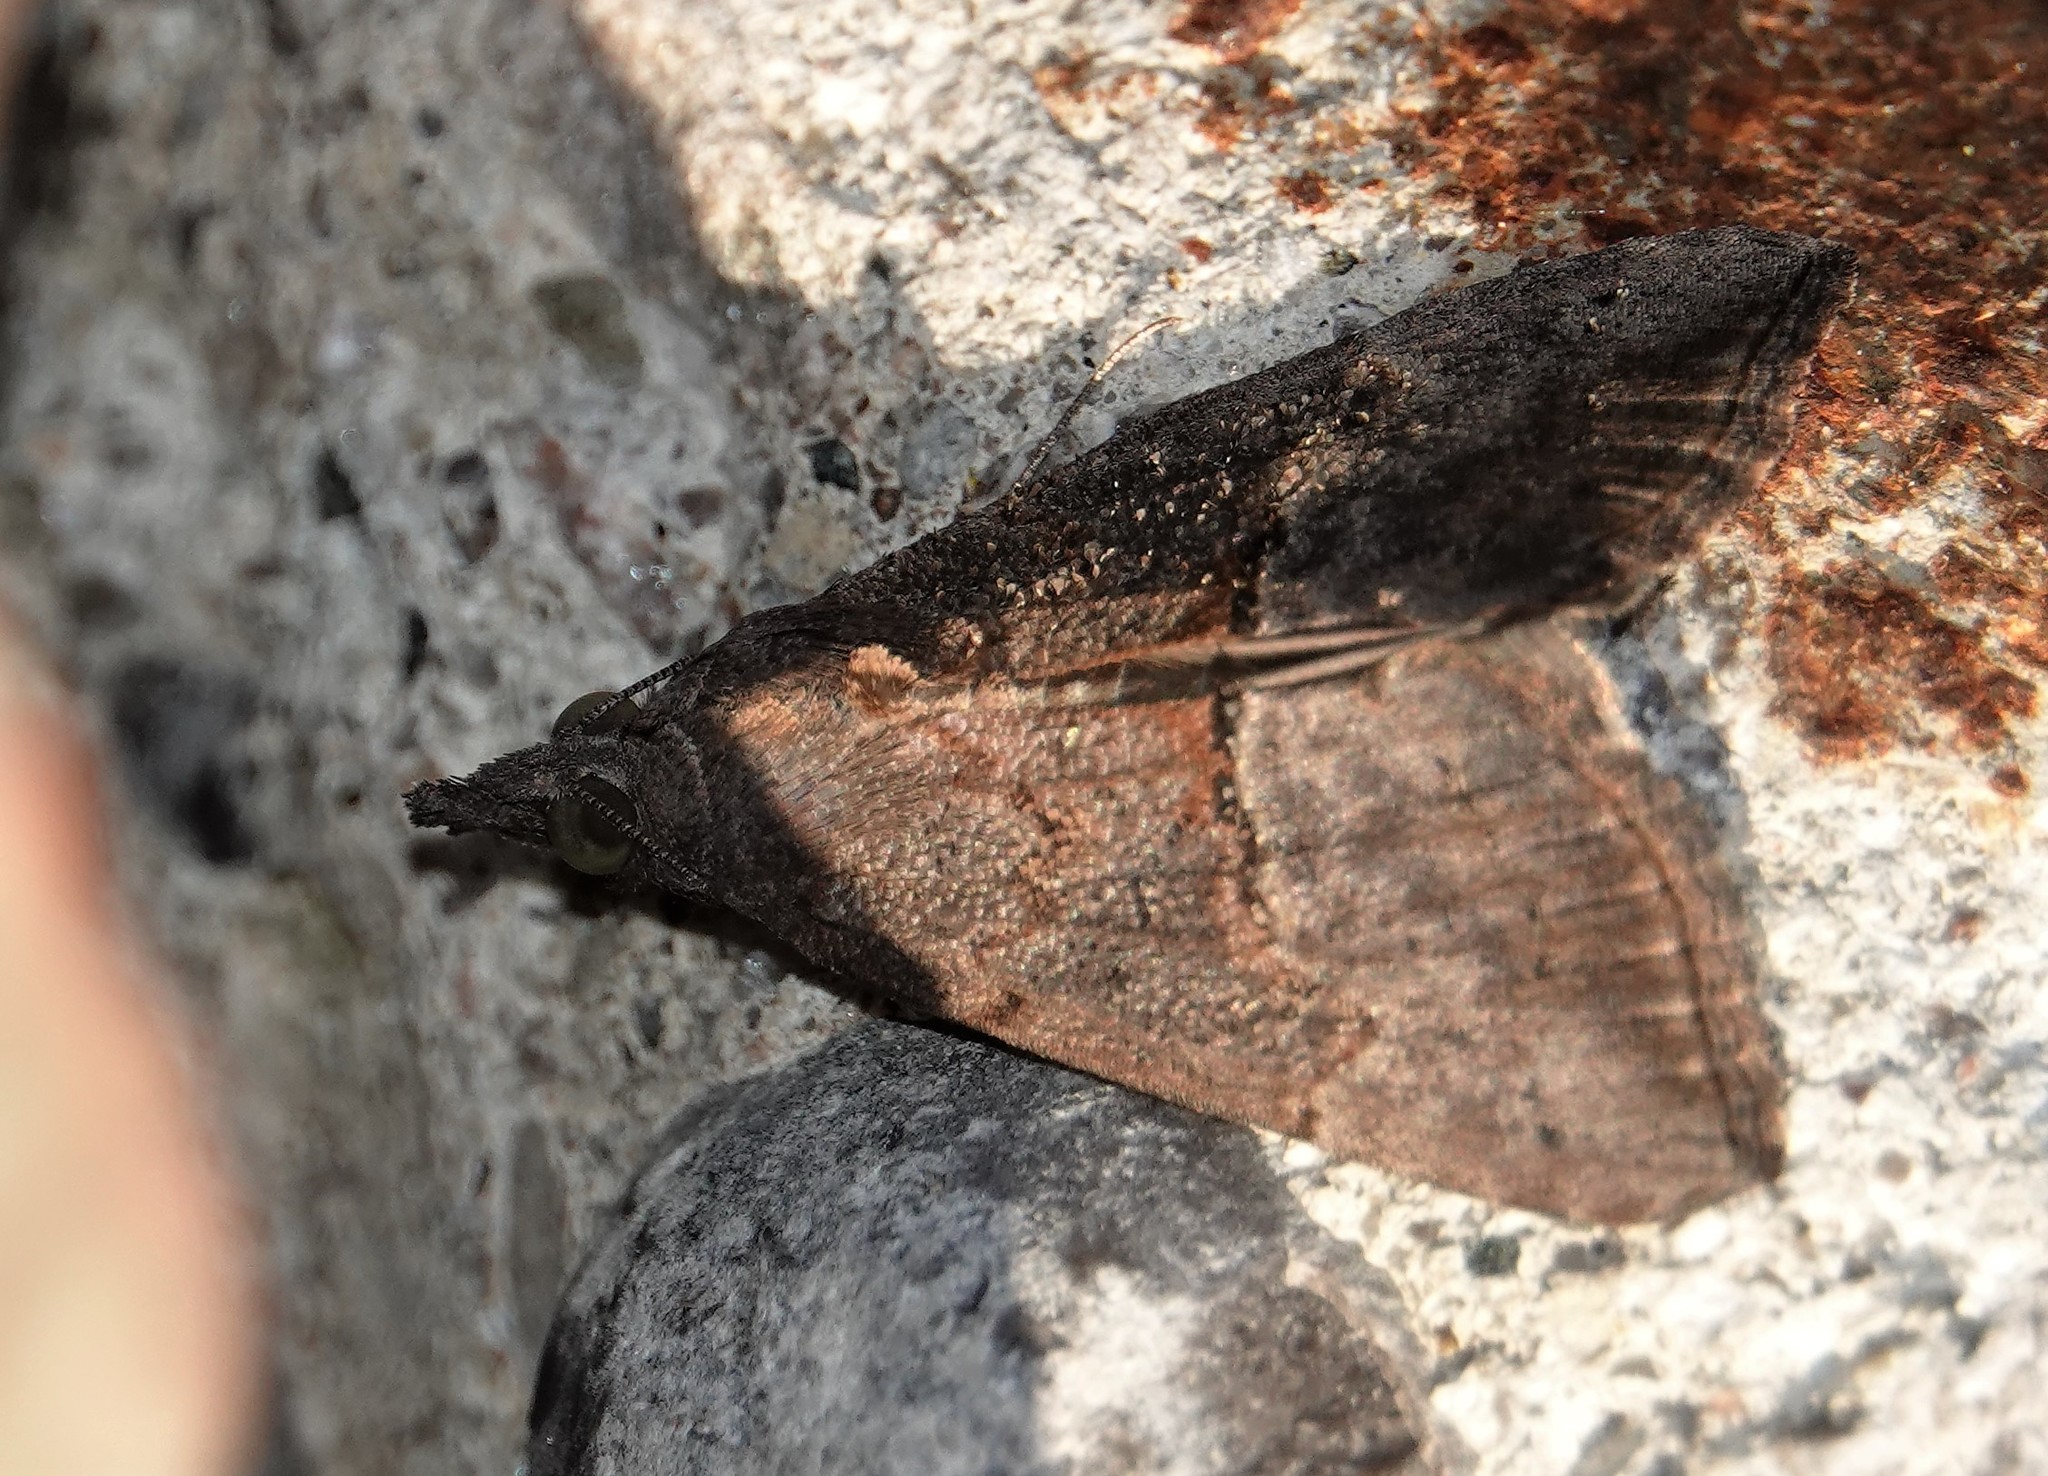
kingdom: Animalia
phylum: Arthropoda
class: Insecta
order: Lepidoptera
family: Erebidae
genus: Hypena
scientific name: Hypena scabra
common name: Green cloverworm
